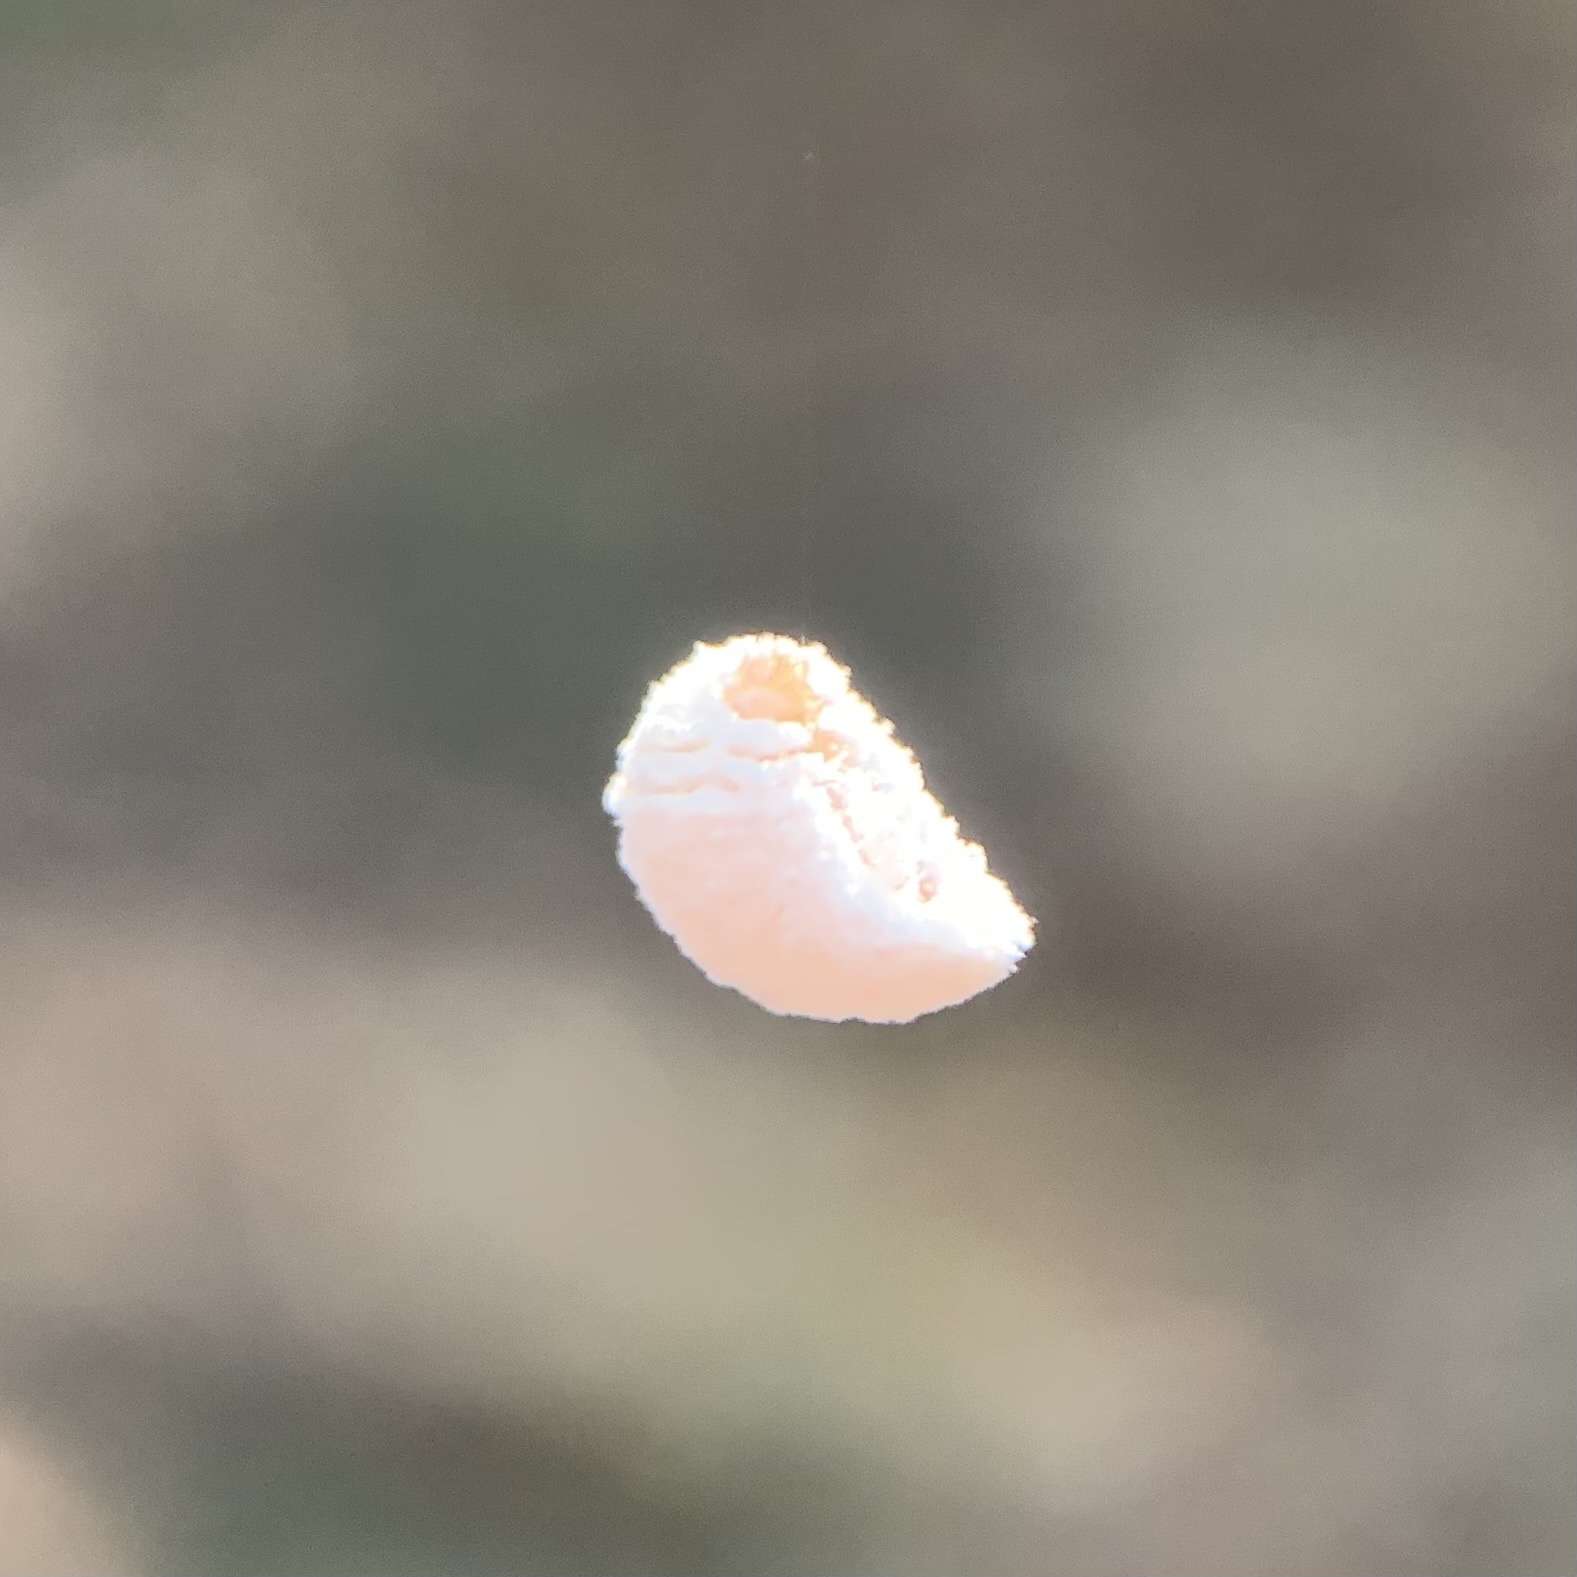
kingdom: Animalia
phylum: Arthropoda
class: Insecta
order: Lepidoptera
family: Epipyropidae
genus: Fulgoraecia
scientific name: Fulgoraecia exigua
